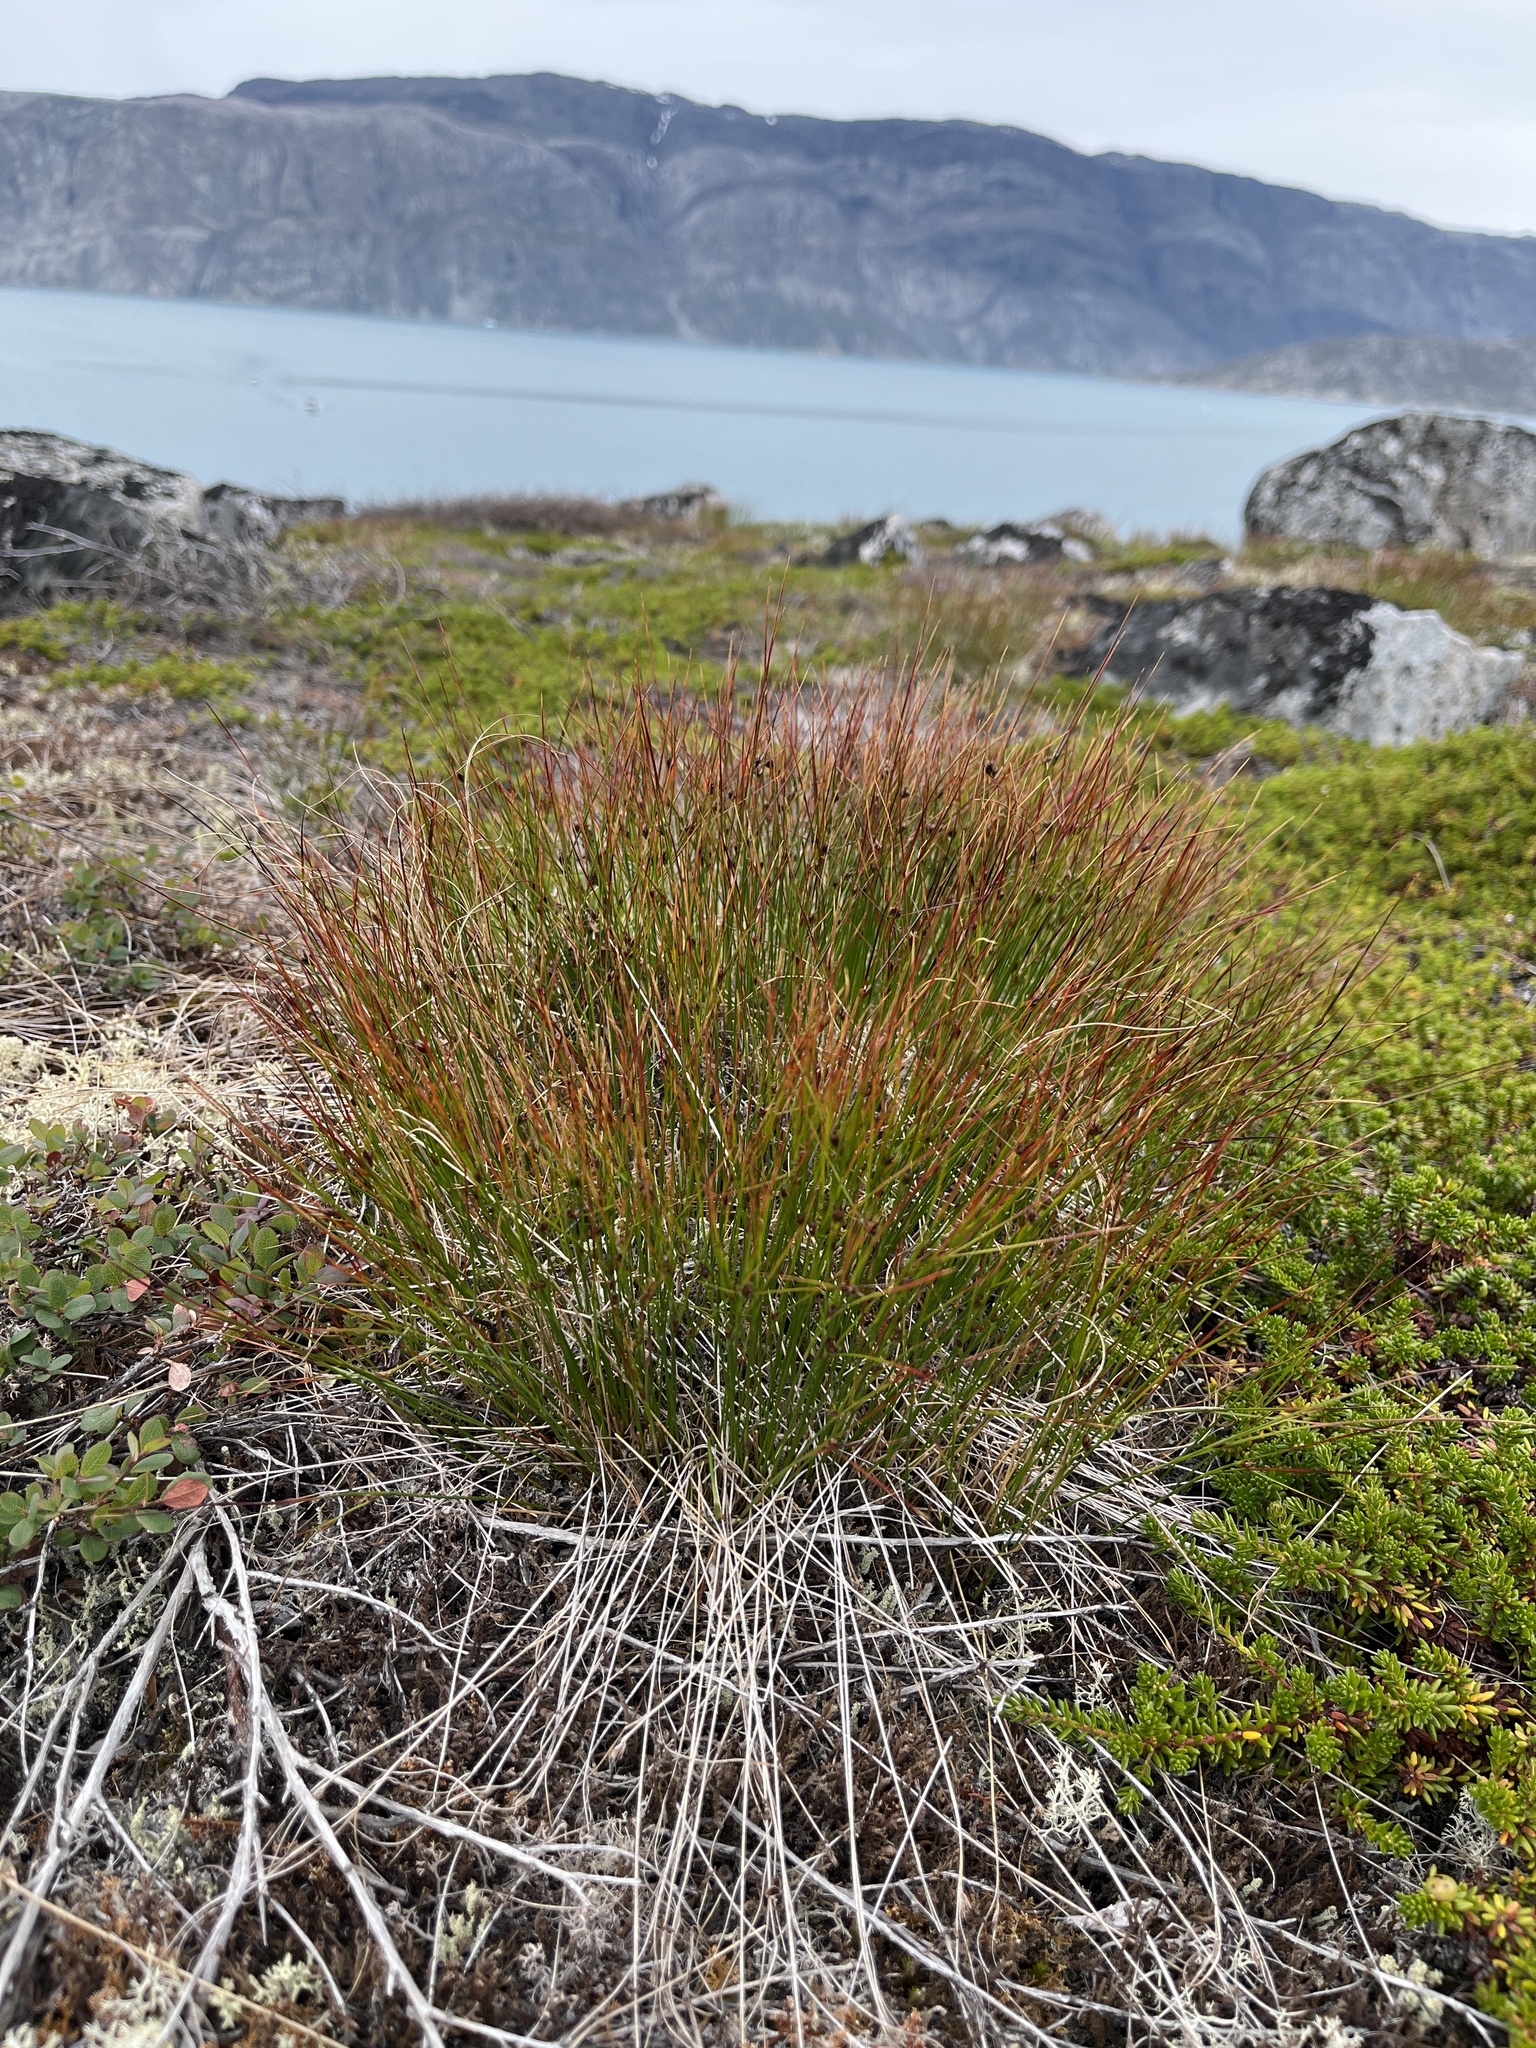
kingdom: Plantae
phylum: Tracheophyta
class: Liliopsida
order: Poales
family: Juncaceae
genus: Oreojuncus
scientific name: Oreojuncus trifidus
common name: Highland rush
